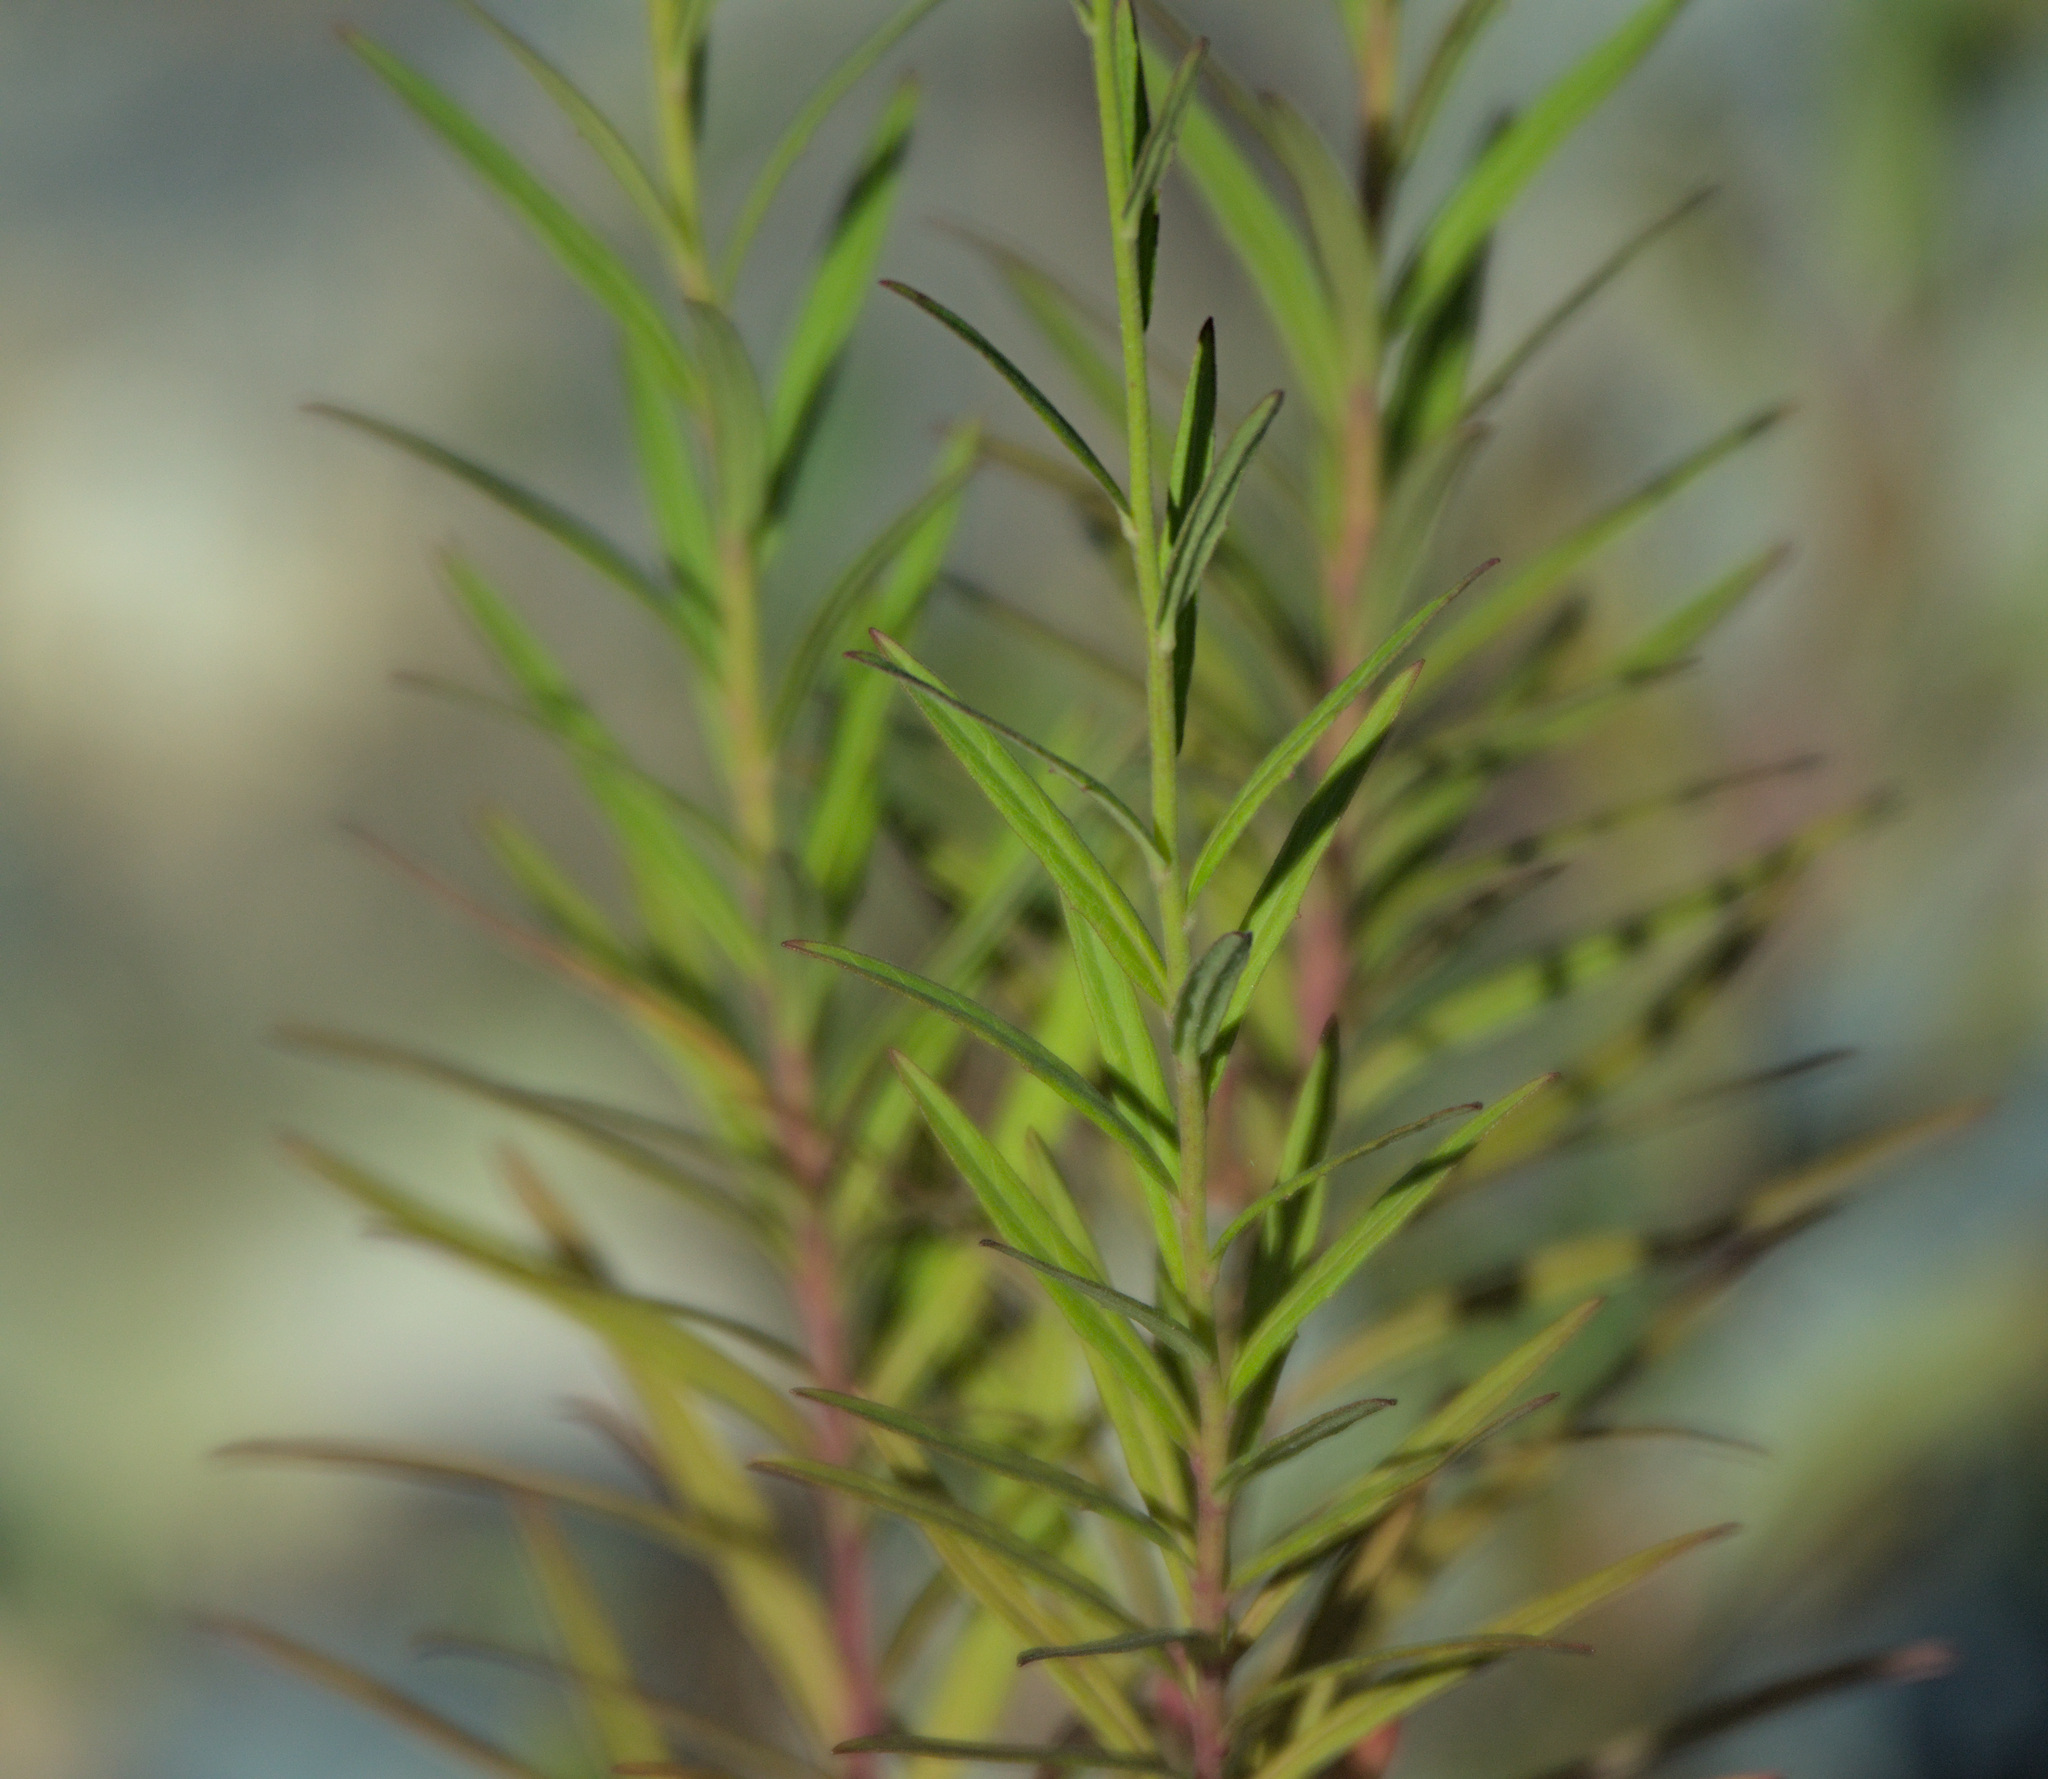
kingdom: Plantae
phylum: Tracheophyta
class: Magnoliopsida
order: Asterales
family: Asteraceae
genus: Hieracium
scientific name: Hieracium umbellatum
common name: Northern hawkweed
